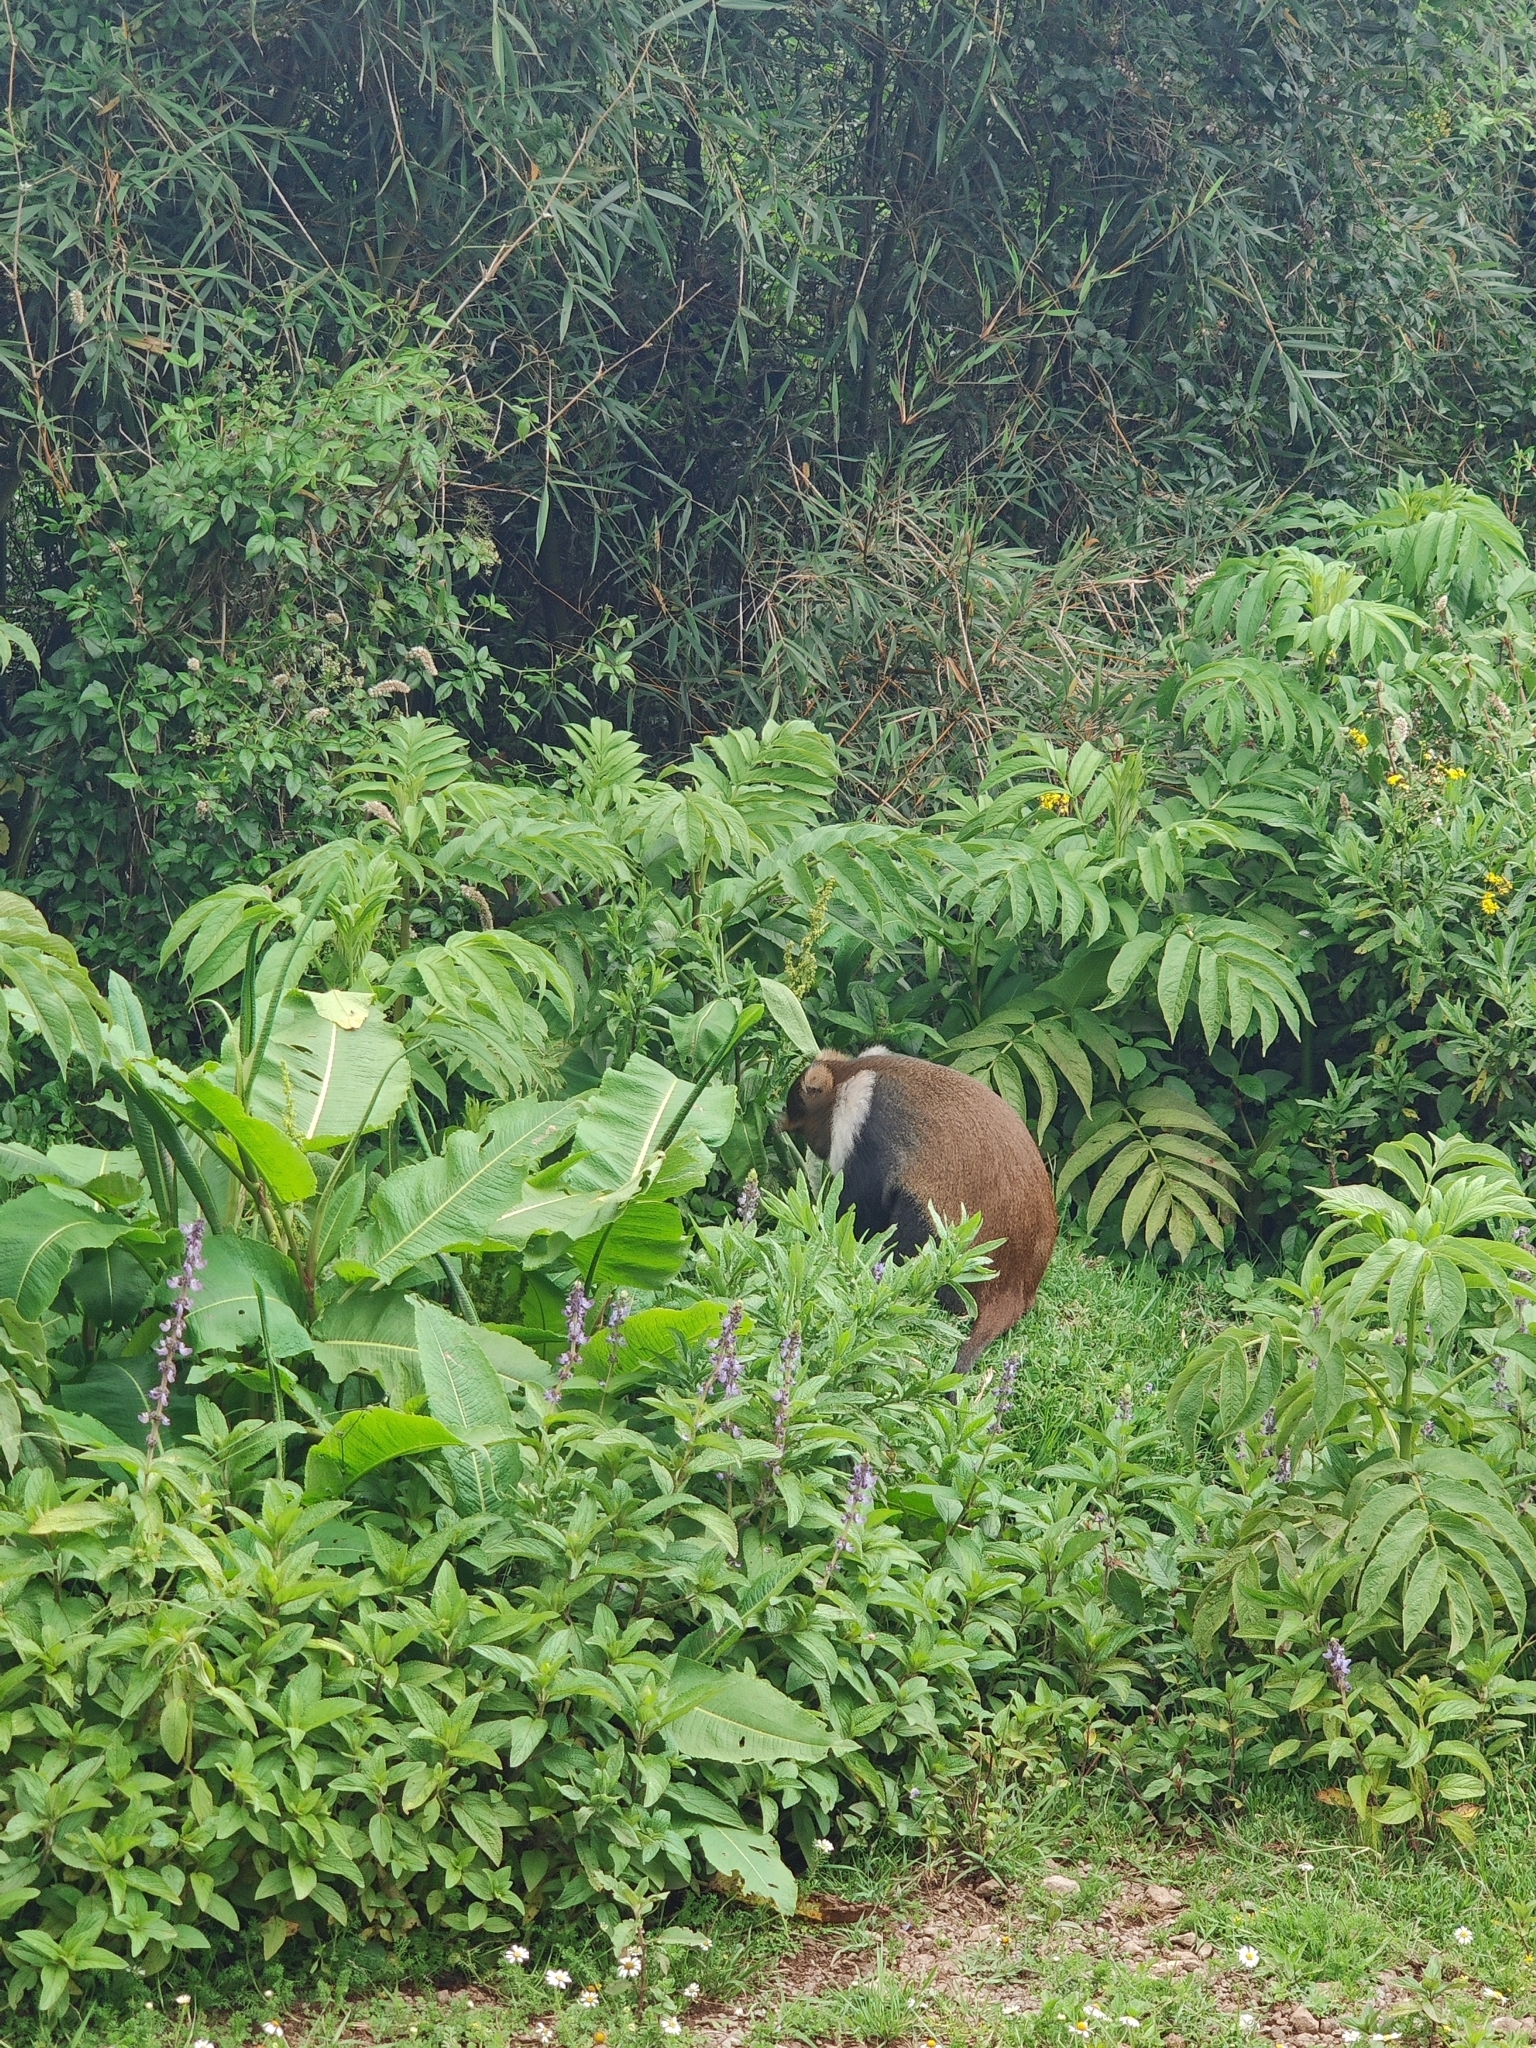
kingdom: Animalia
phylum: Chordata
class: Mammalia
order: Primates
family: Cercopithecidae
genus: Cercopithecus
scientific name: Cercopithecus mitis
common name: Blue monkey
